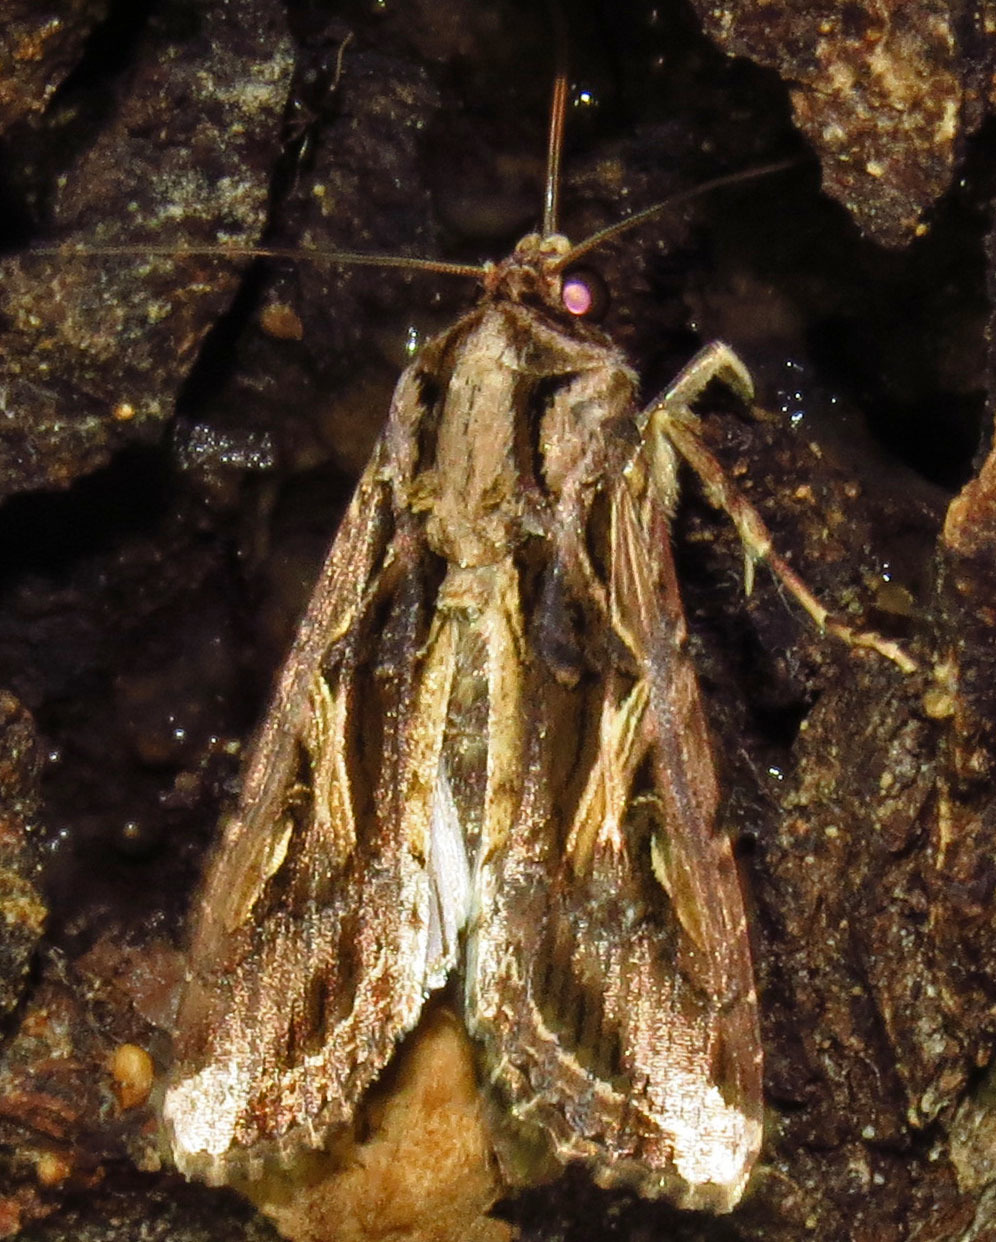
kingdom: Animalia
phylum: Arthropoda
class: Insecta
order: Lepidoptera
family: Noctuidae
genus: Spodoptera
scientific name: Spodoptera dolichos
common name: Sweetpotato armyworm
